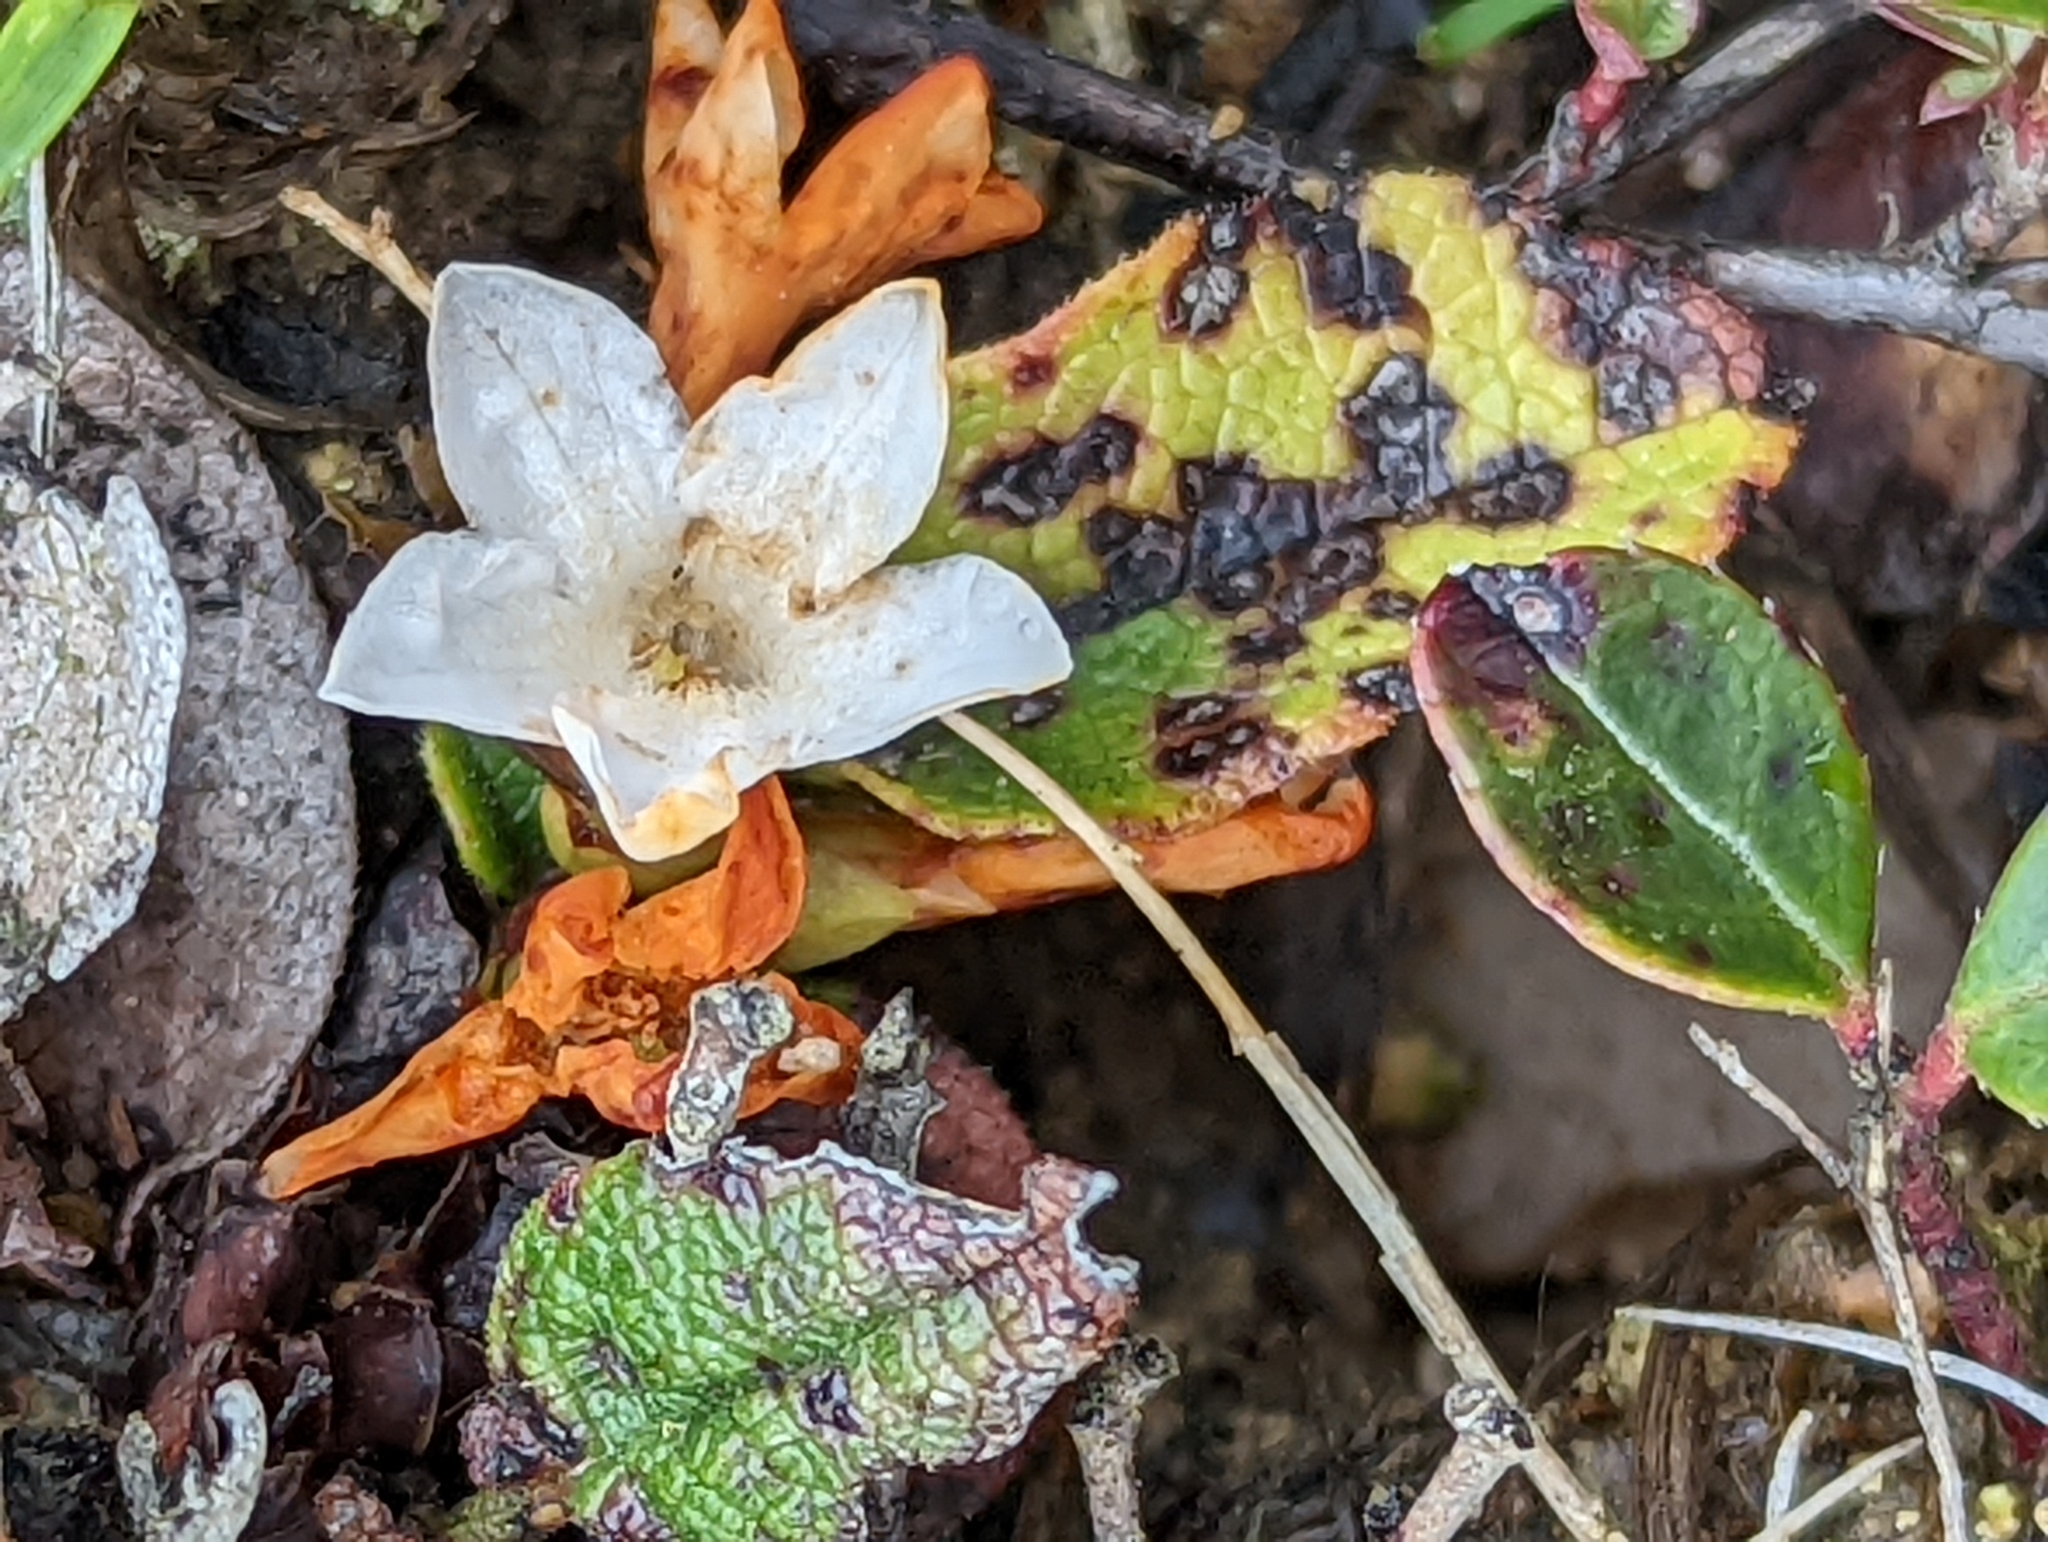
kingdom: Plantae
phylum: Tracheophyta
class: Magnoliopsida
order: Ericales
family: Ericaceae
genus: Epigaea
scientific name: Epigaea repens
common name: Gravelroot
